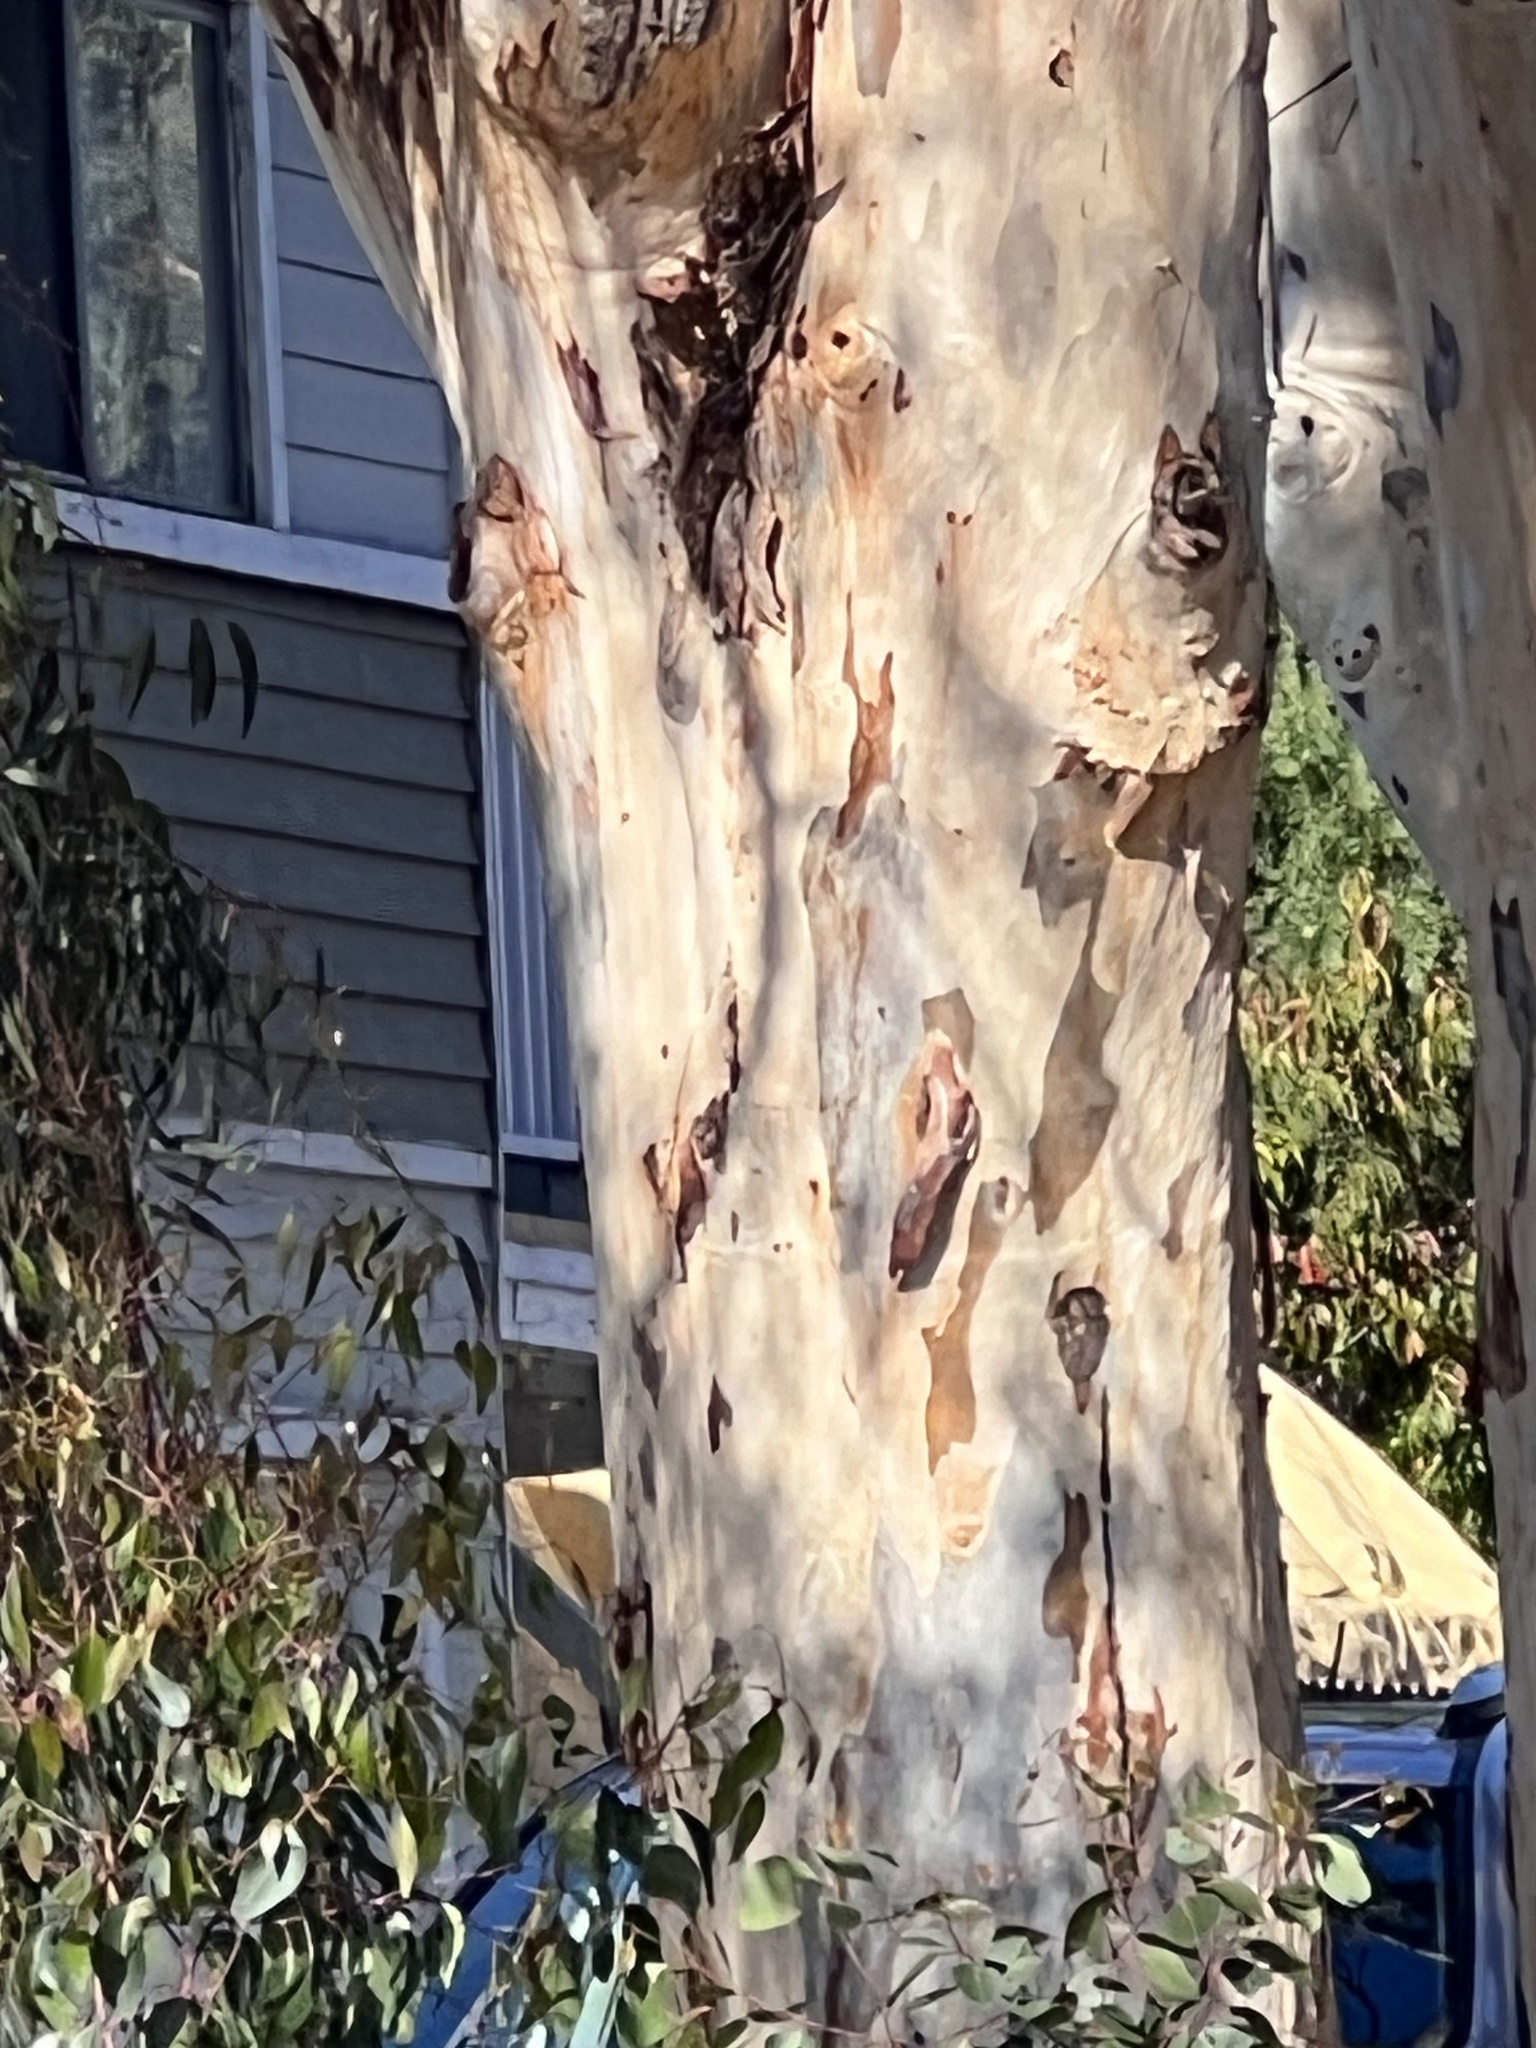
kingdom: Plantae
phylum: Tracheophyta
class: Magnoliopsida
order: Myrtales
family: Myrtaceae
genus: Eucalyptus
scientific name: Eucalyptus cladocalyx
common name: Sugargum
